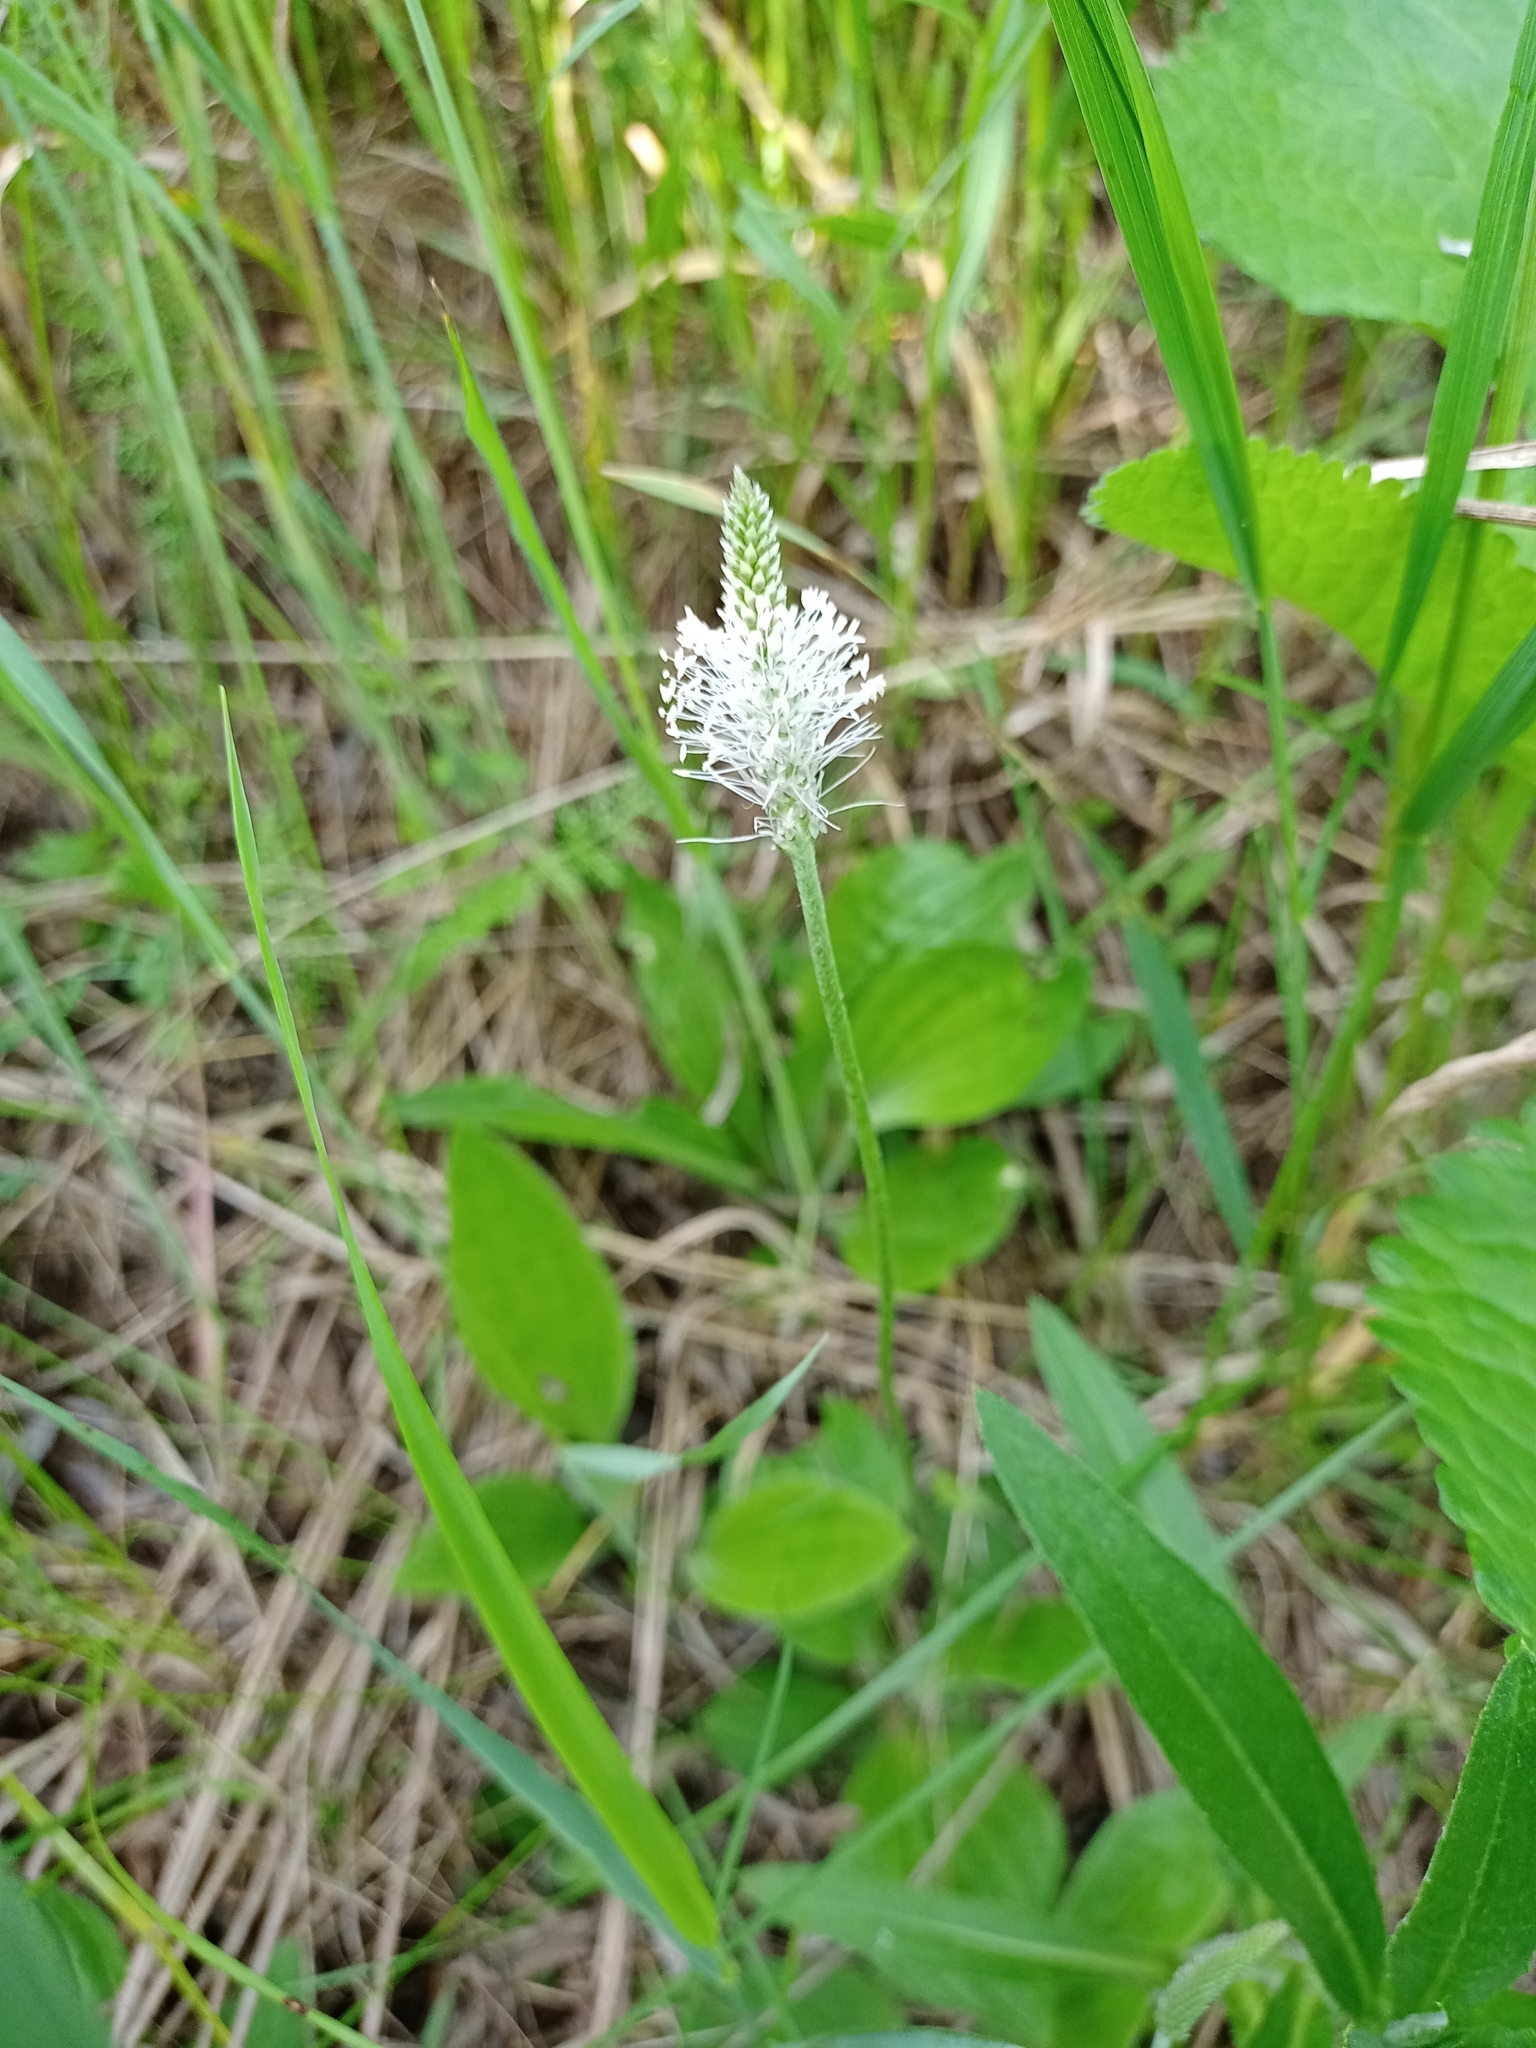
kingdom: Plantae
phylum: Tracheophyta
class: Magnoliopsida
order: Lamiales
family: Plantaginaceae
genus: Plantago
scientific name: Plantago media
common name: Hoary plantain
